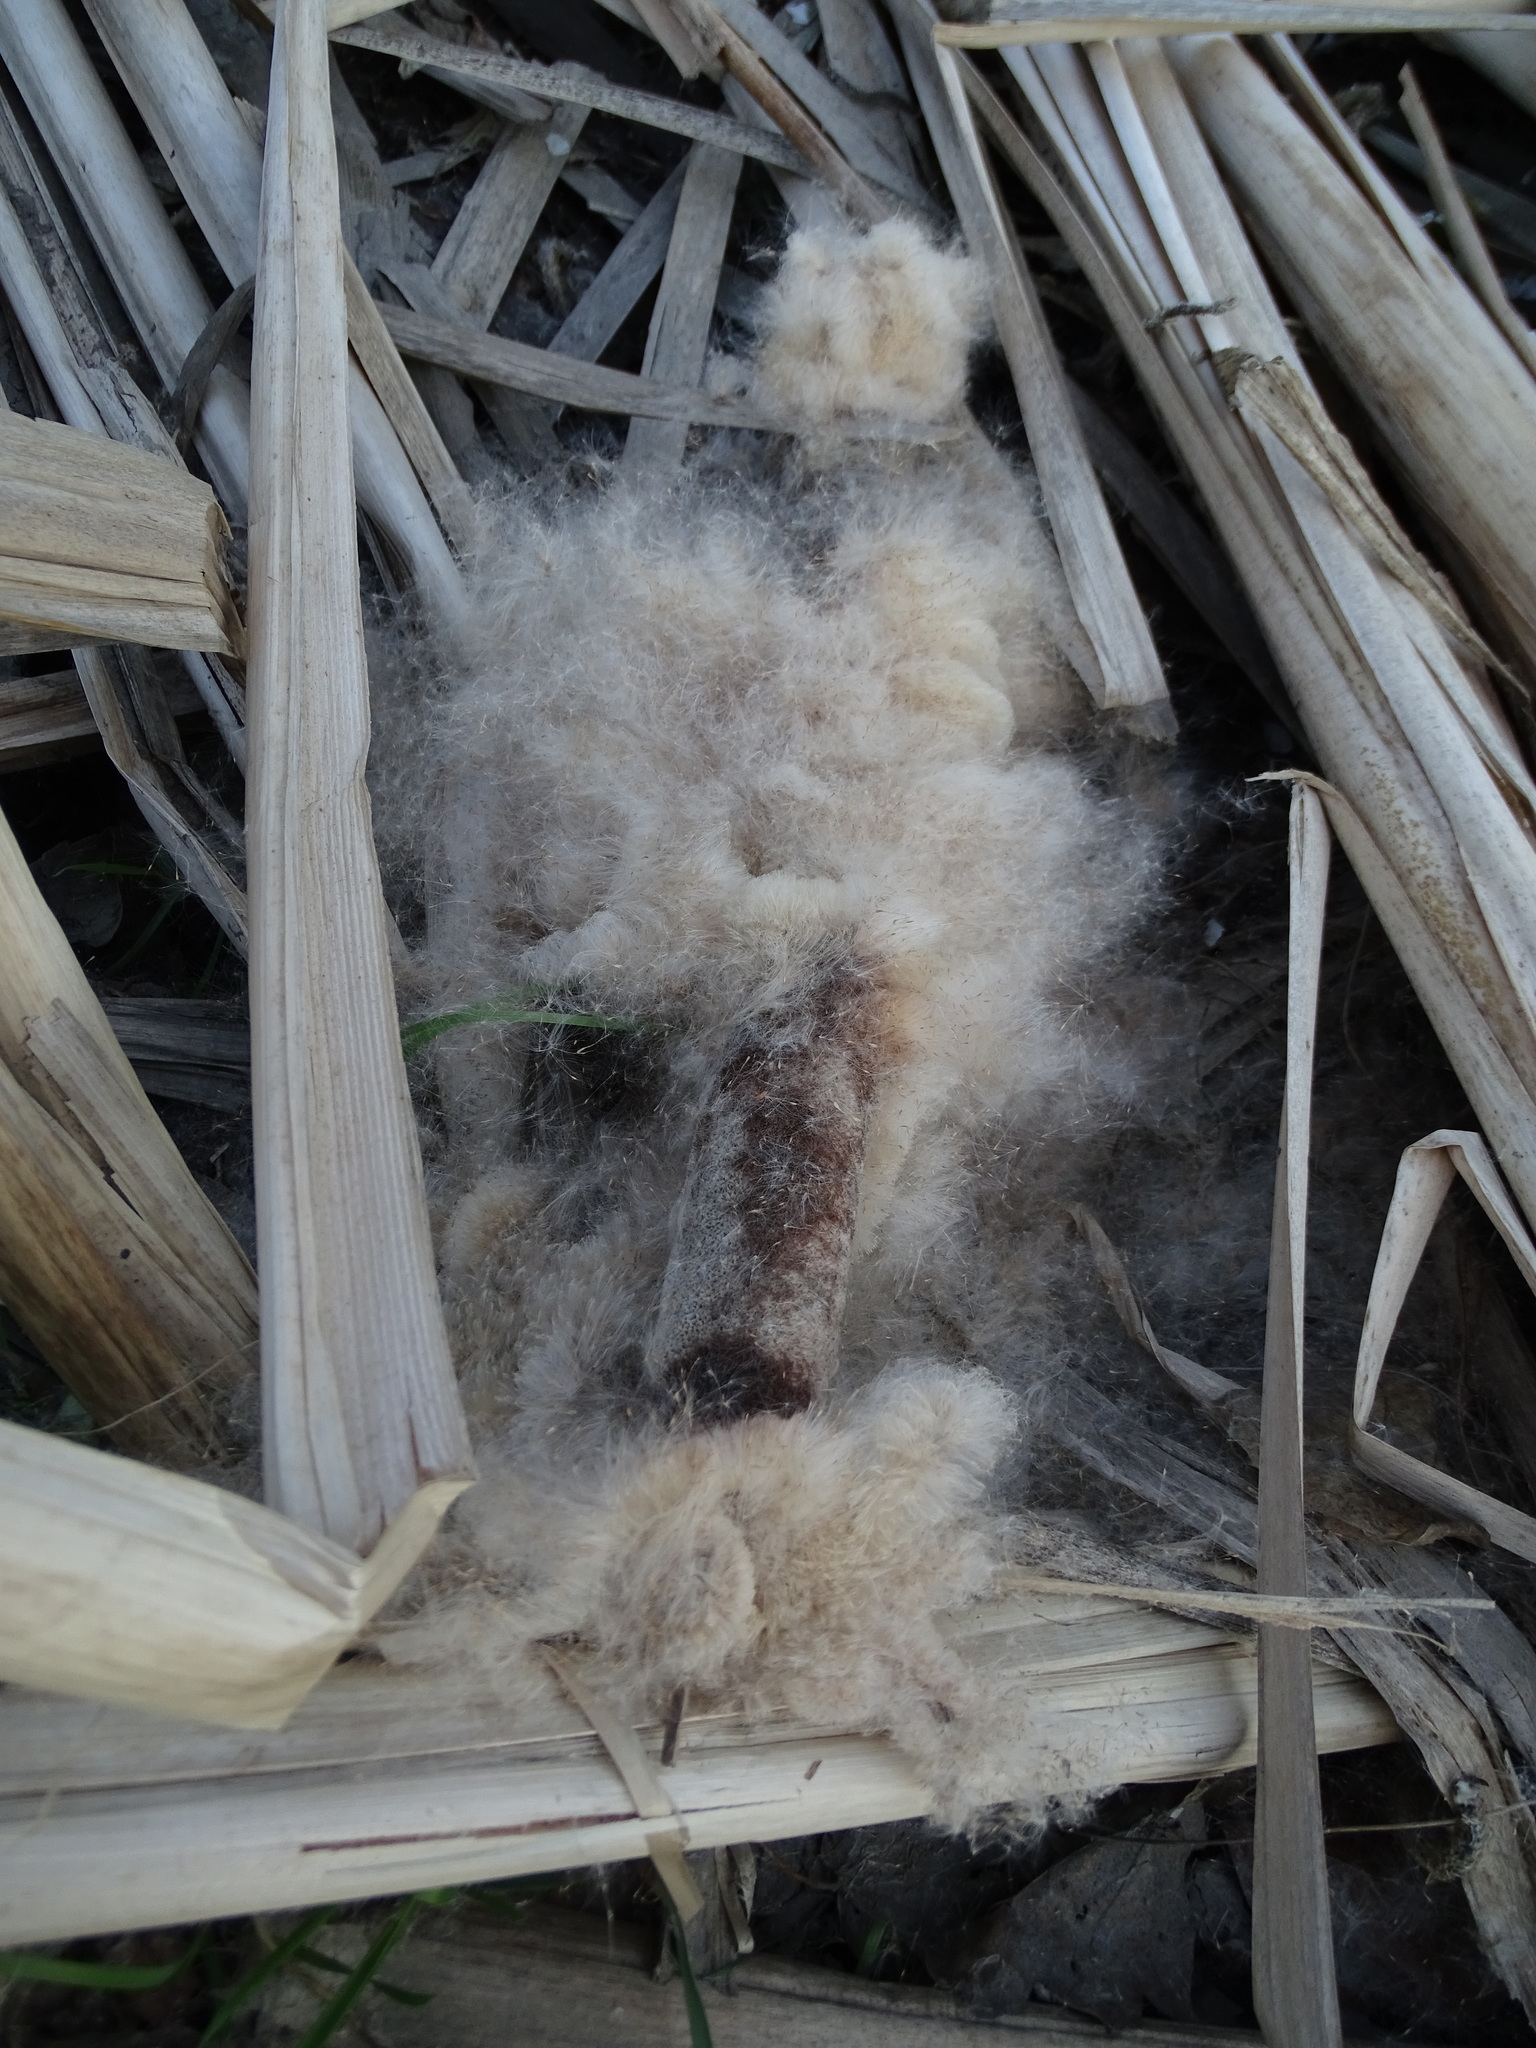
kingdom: Plantae
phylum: Tracheophyta
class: Liliopsida
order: Poales
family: Typhaceae
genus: Typha
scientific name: Typha latifolia
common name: Broadleaf cattail
